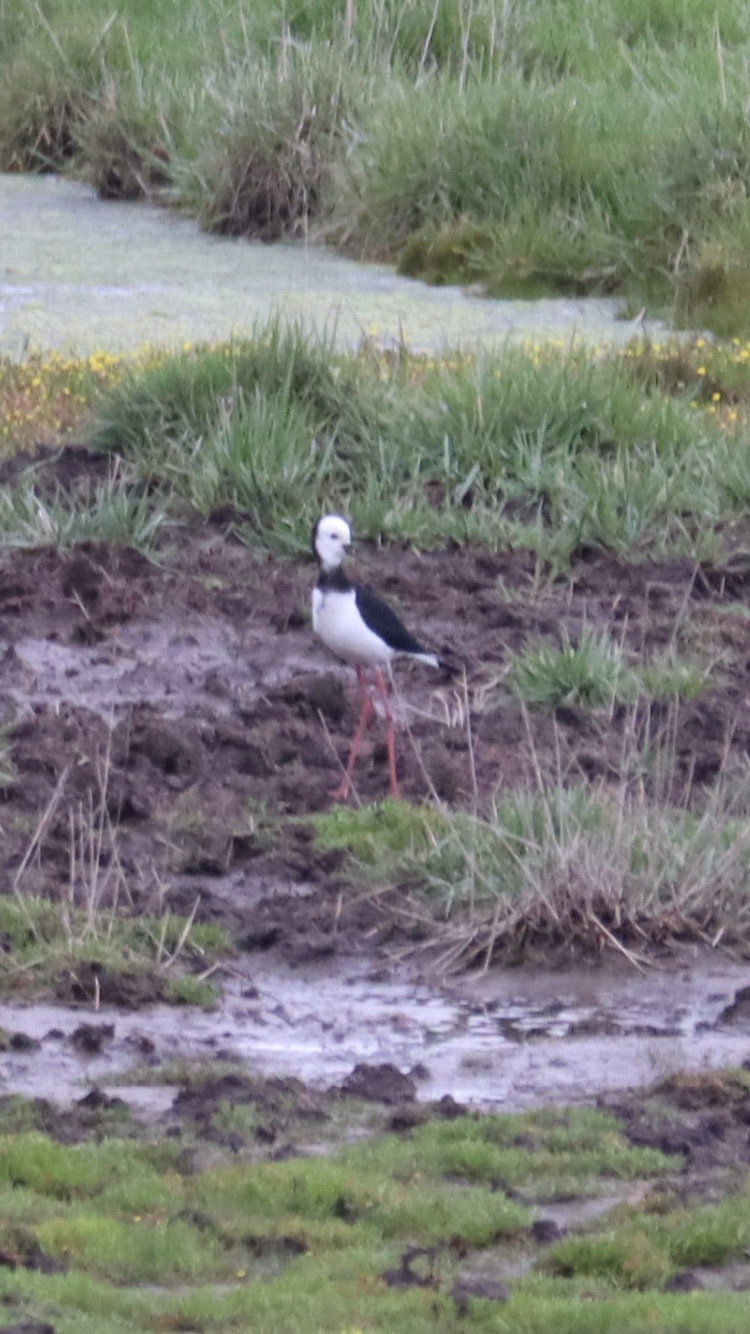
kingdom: Animalia
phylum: Chordata
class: Aves
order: Charadriiformes
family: Recurvirostridae
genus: Himantopus
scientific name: Himantopus
